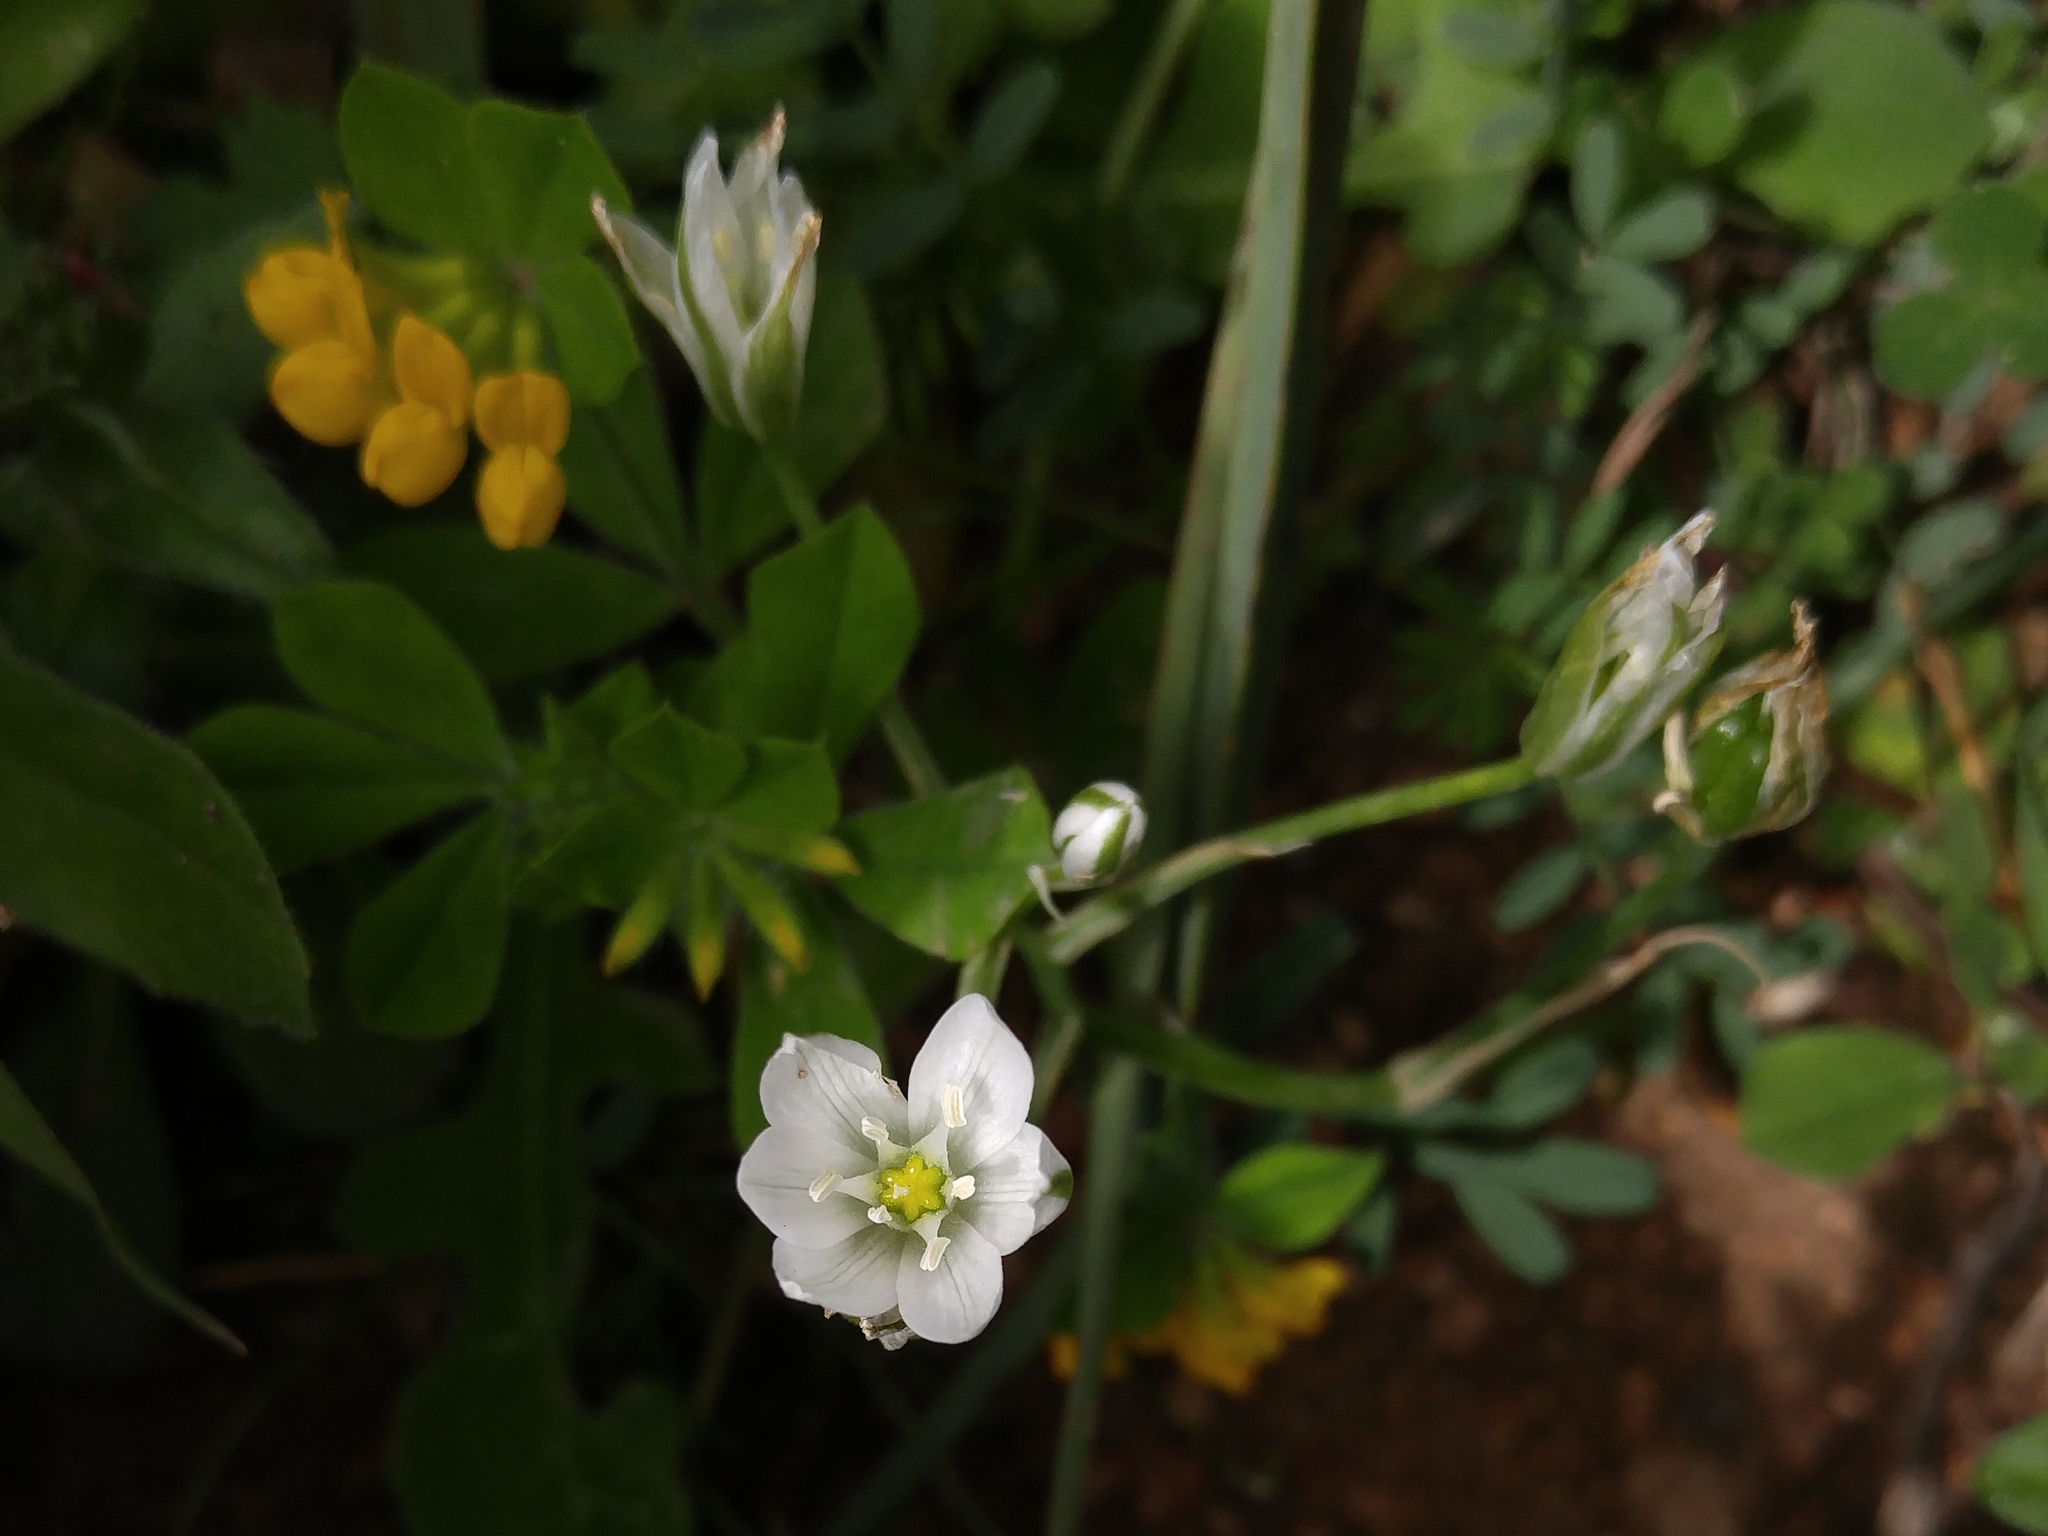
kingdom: Plantae
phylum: Tracheophyta
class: Liliopsida
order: Asparagales
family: Asparagaceae
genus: Ornithogalum
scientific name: Ornithogalum baeticum
